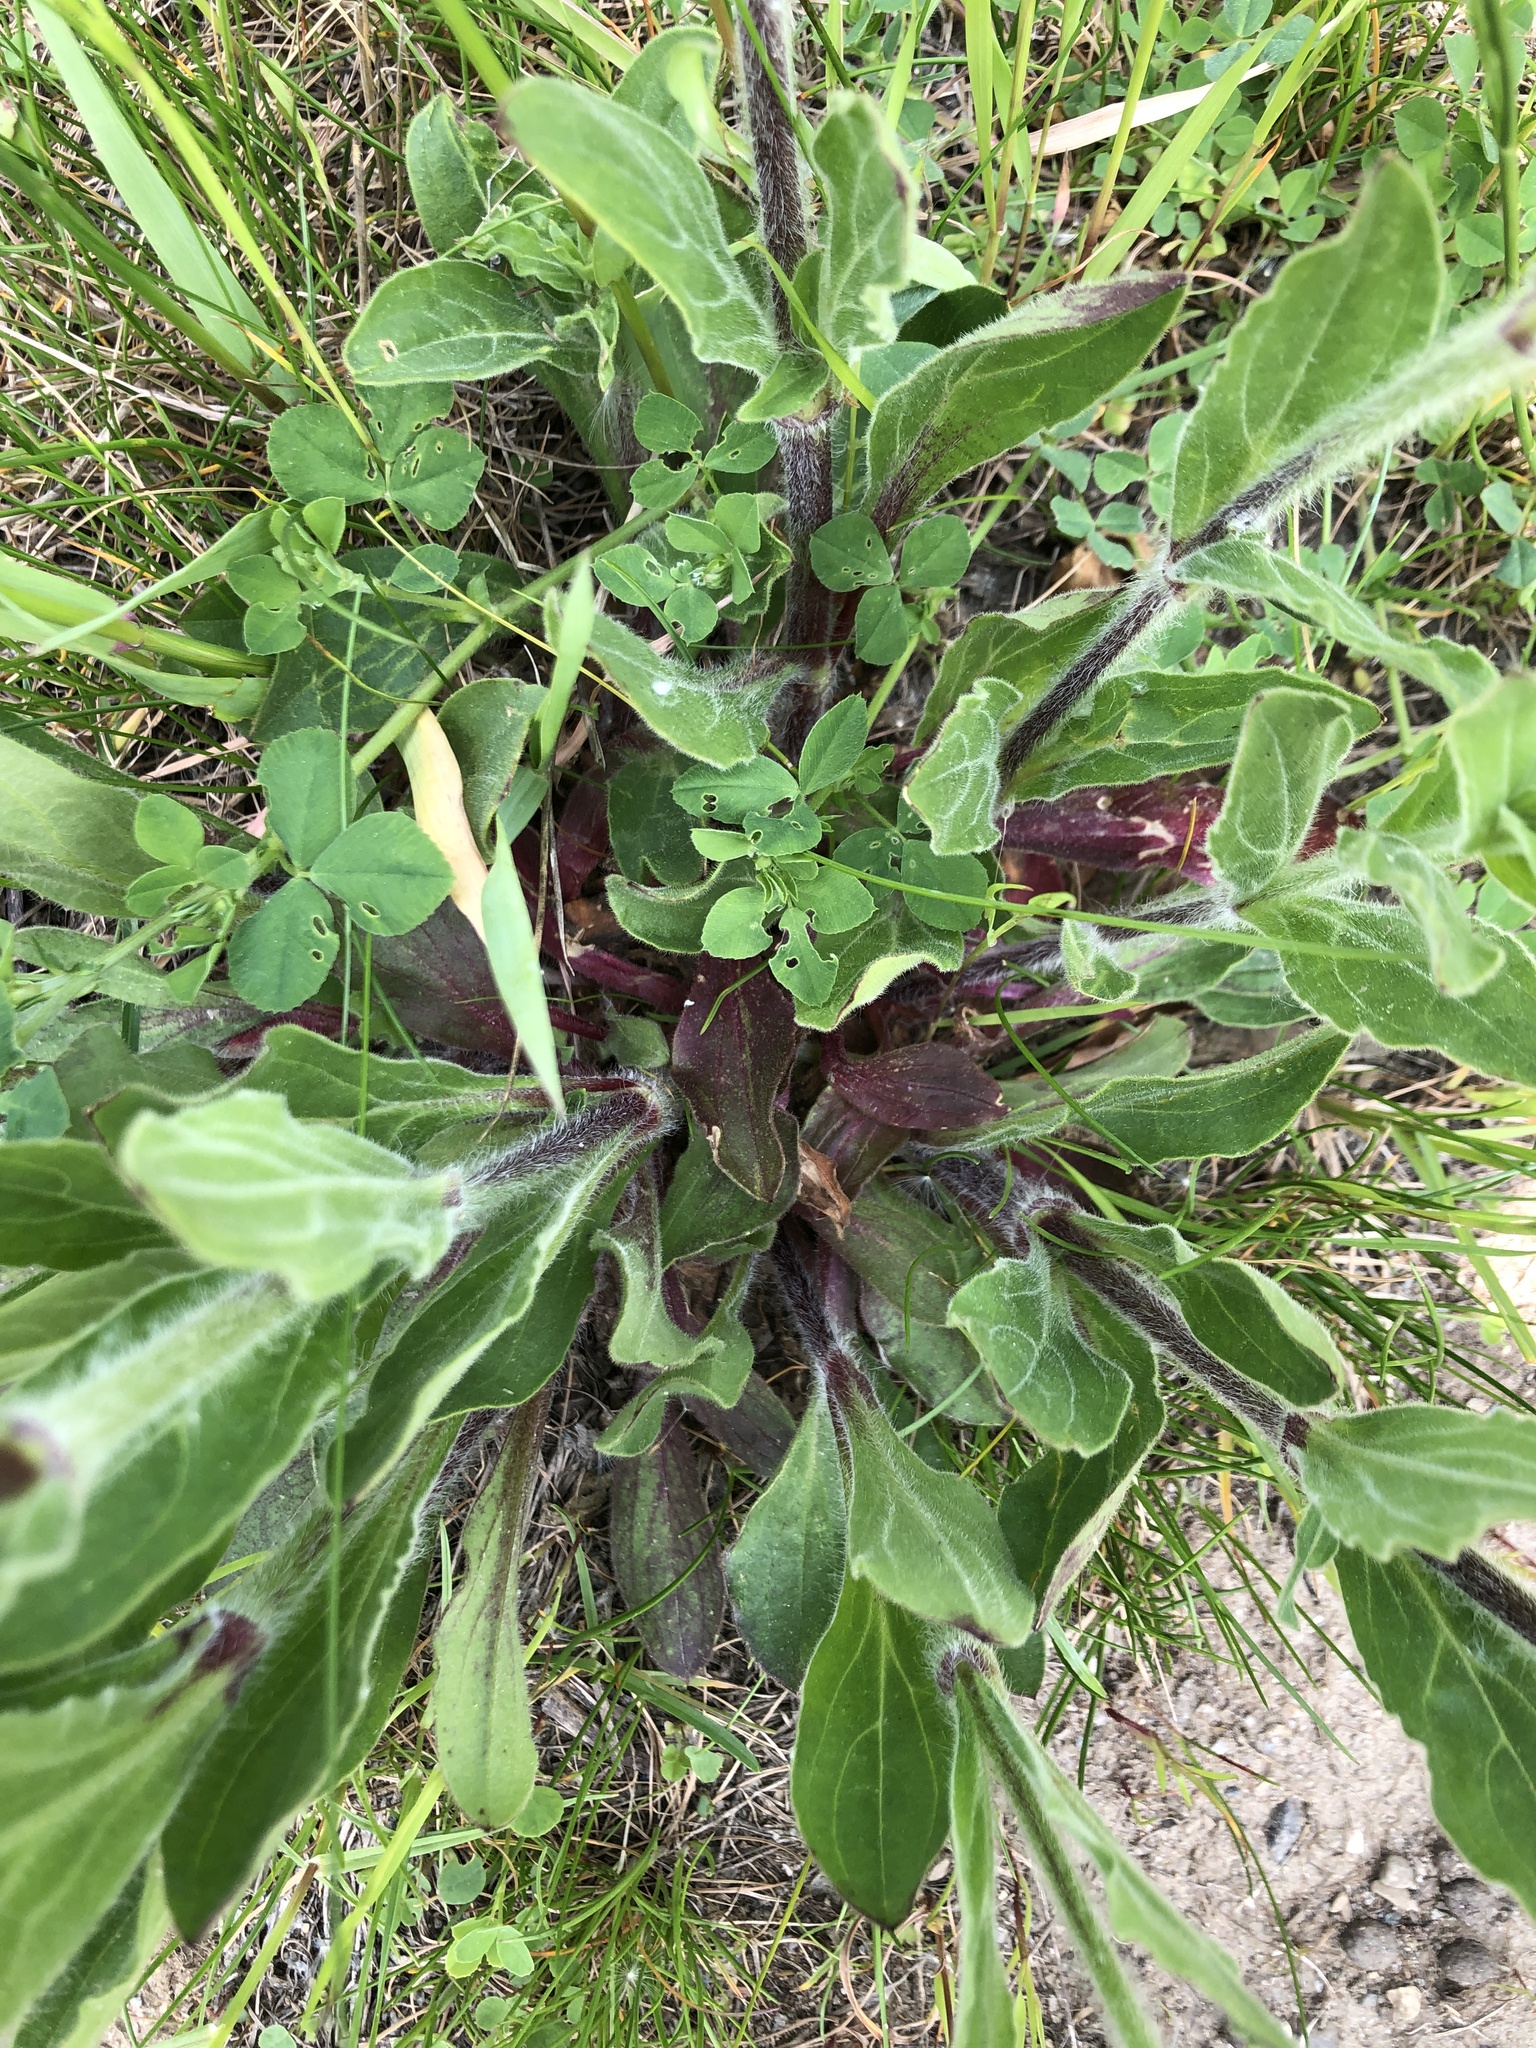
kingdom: Plantae
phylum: Tracheophyta
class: Magnoliopsida
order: Caryophyllales
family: Caryophyllaceae
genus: Silene
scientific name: Silene latifolia
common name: White campion
